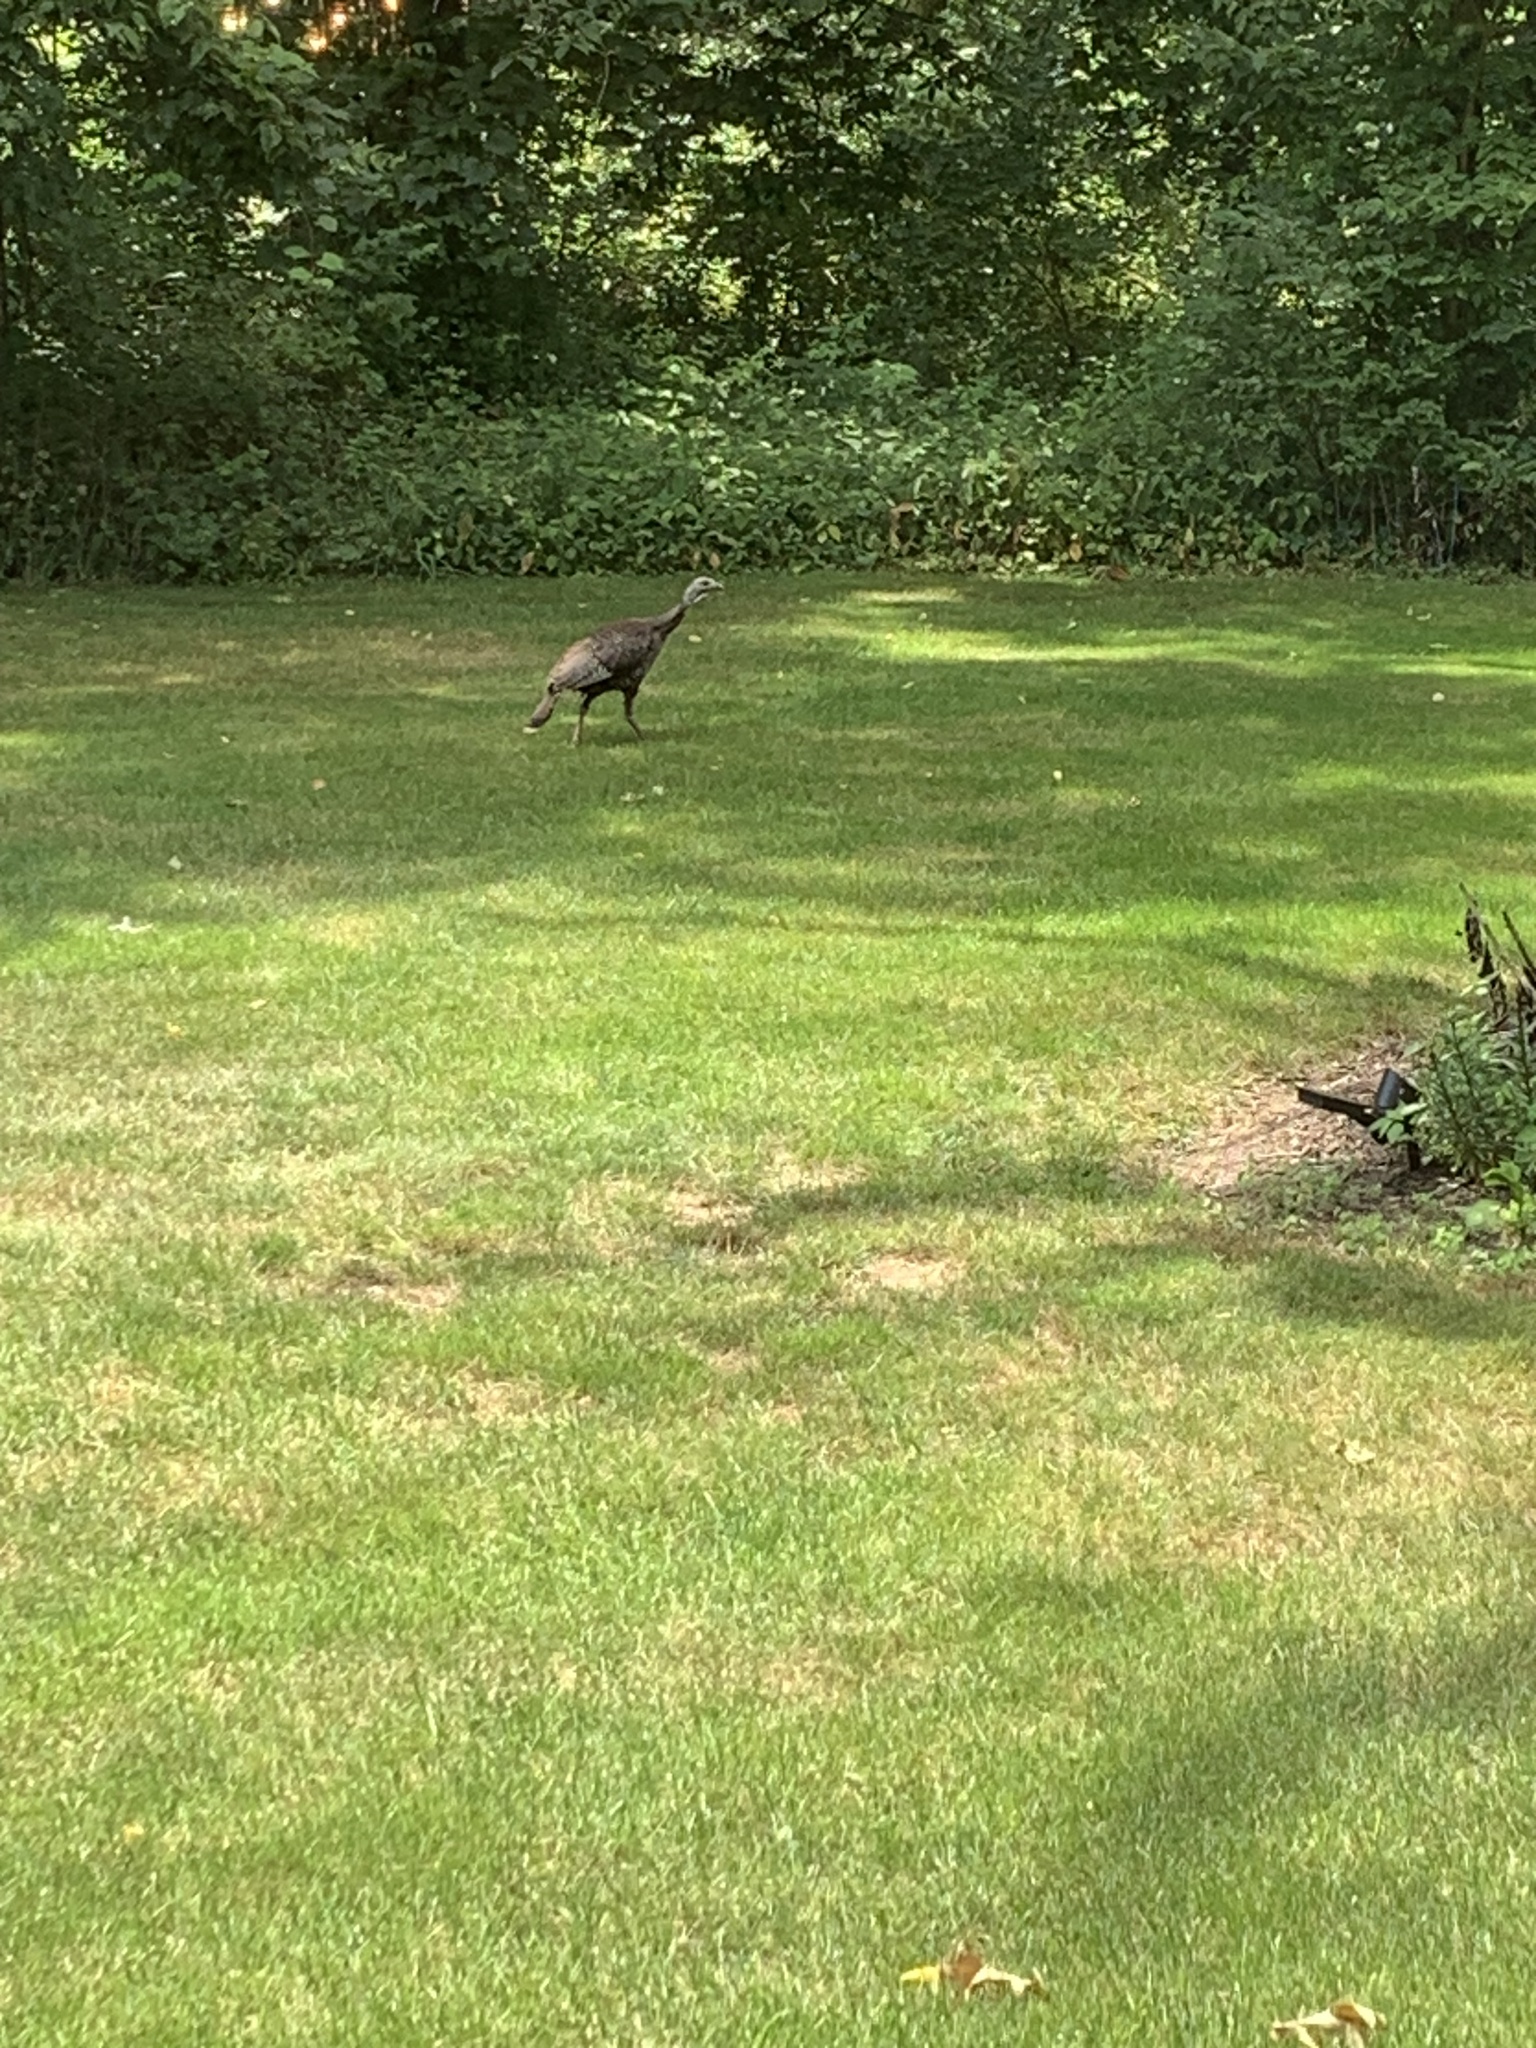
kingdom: Animalia
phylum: Chordata
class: Aves
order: Galliformes
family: Phasianidae
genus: Meleagris
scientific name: Meleagris gallopavo
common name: Wild turkey
